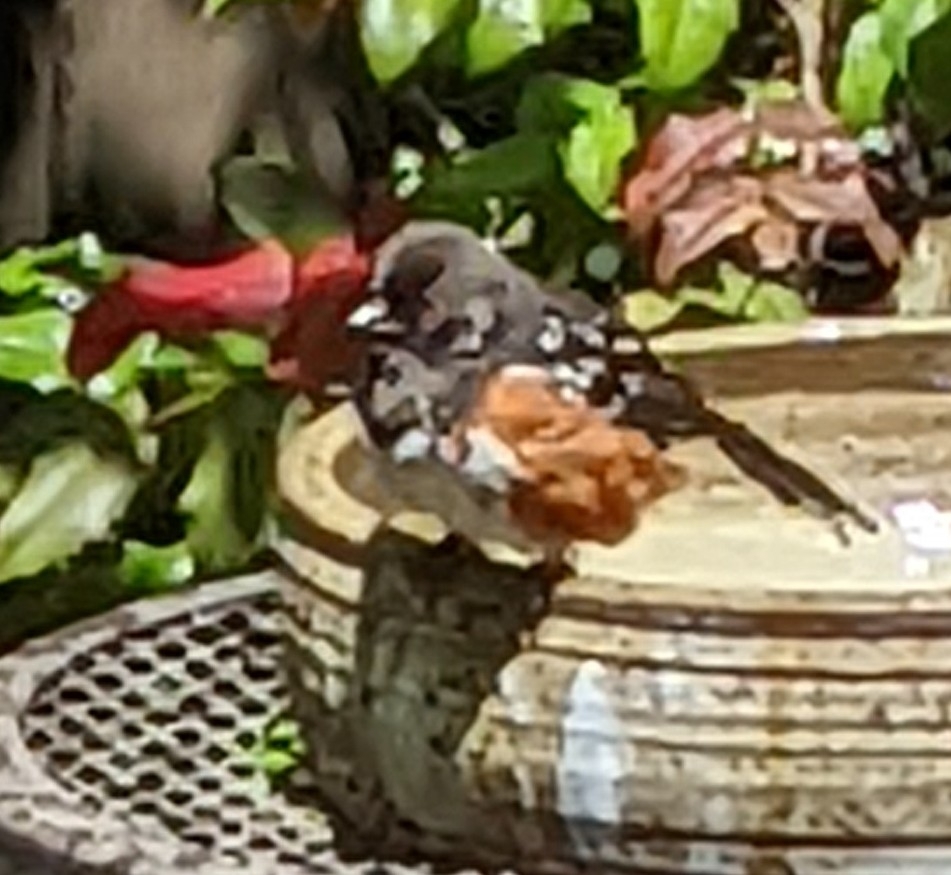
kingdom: Animalia
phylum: Chordata
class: Aves
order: Passeriformes
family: Passerellidae
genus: Pipilo
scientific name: Pipilo maculatus
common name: Spotted towhee
